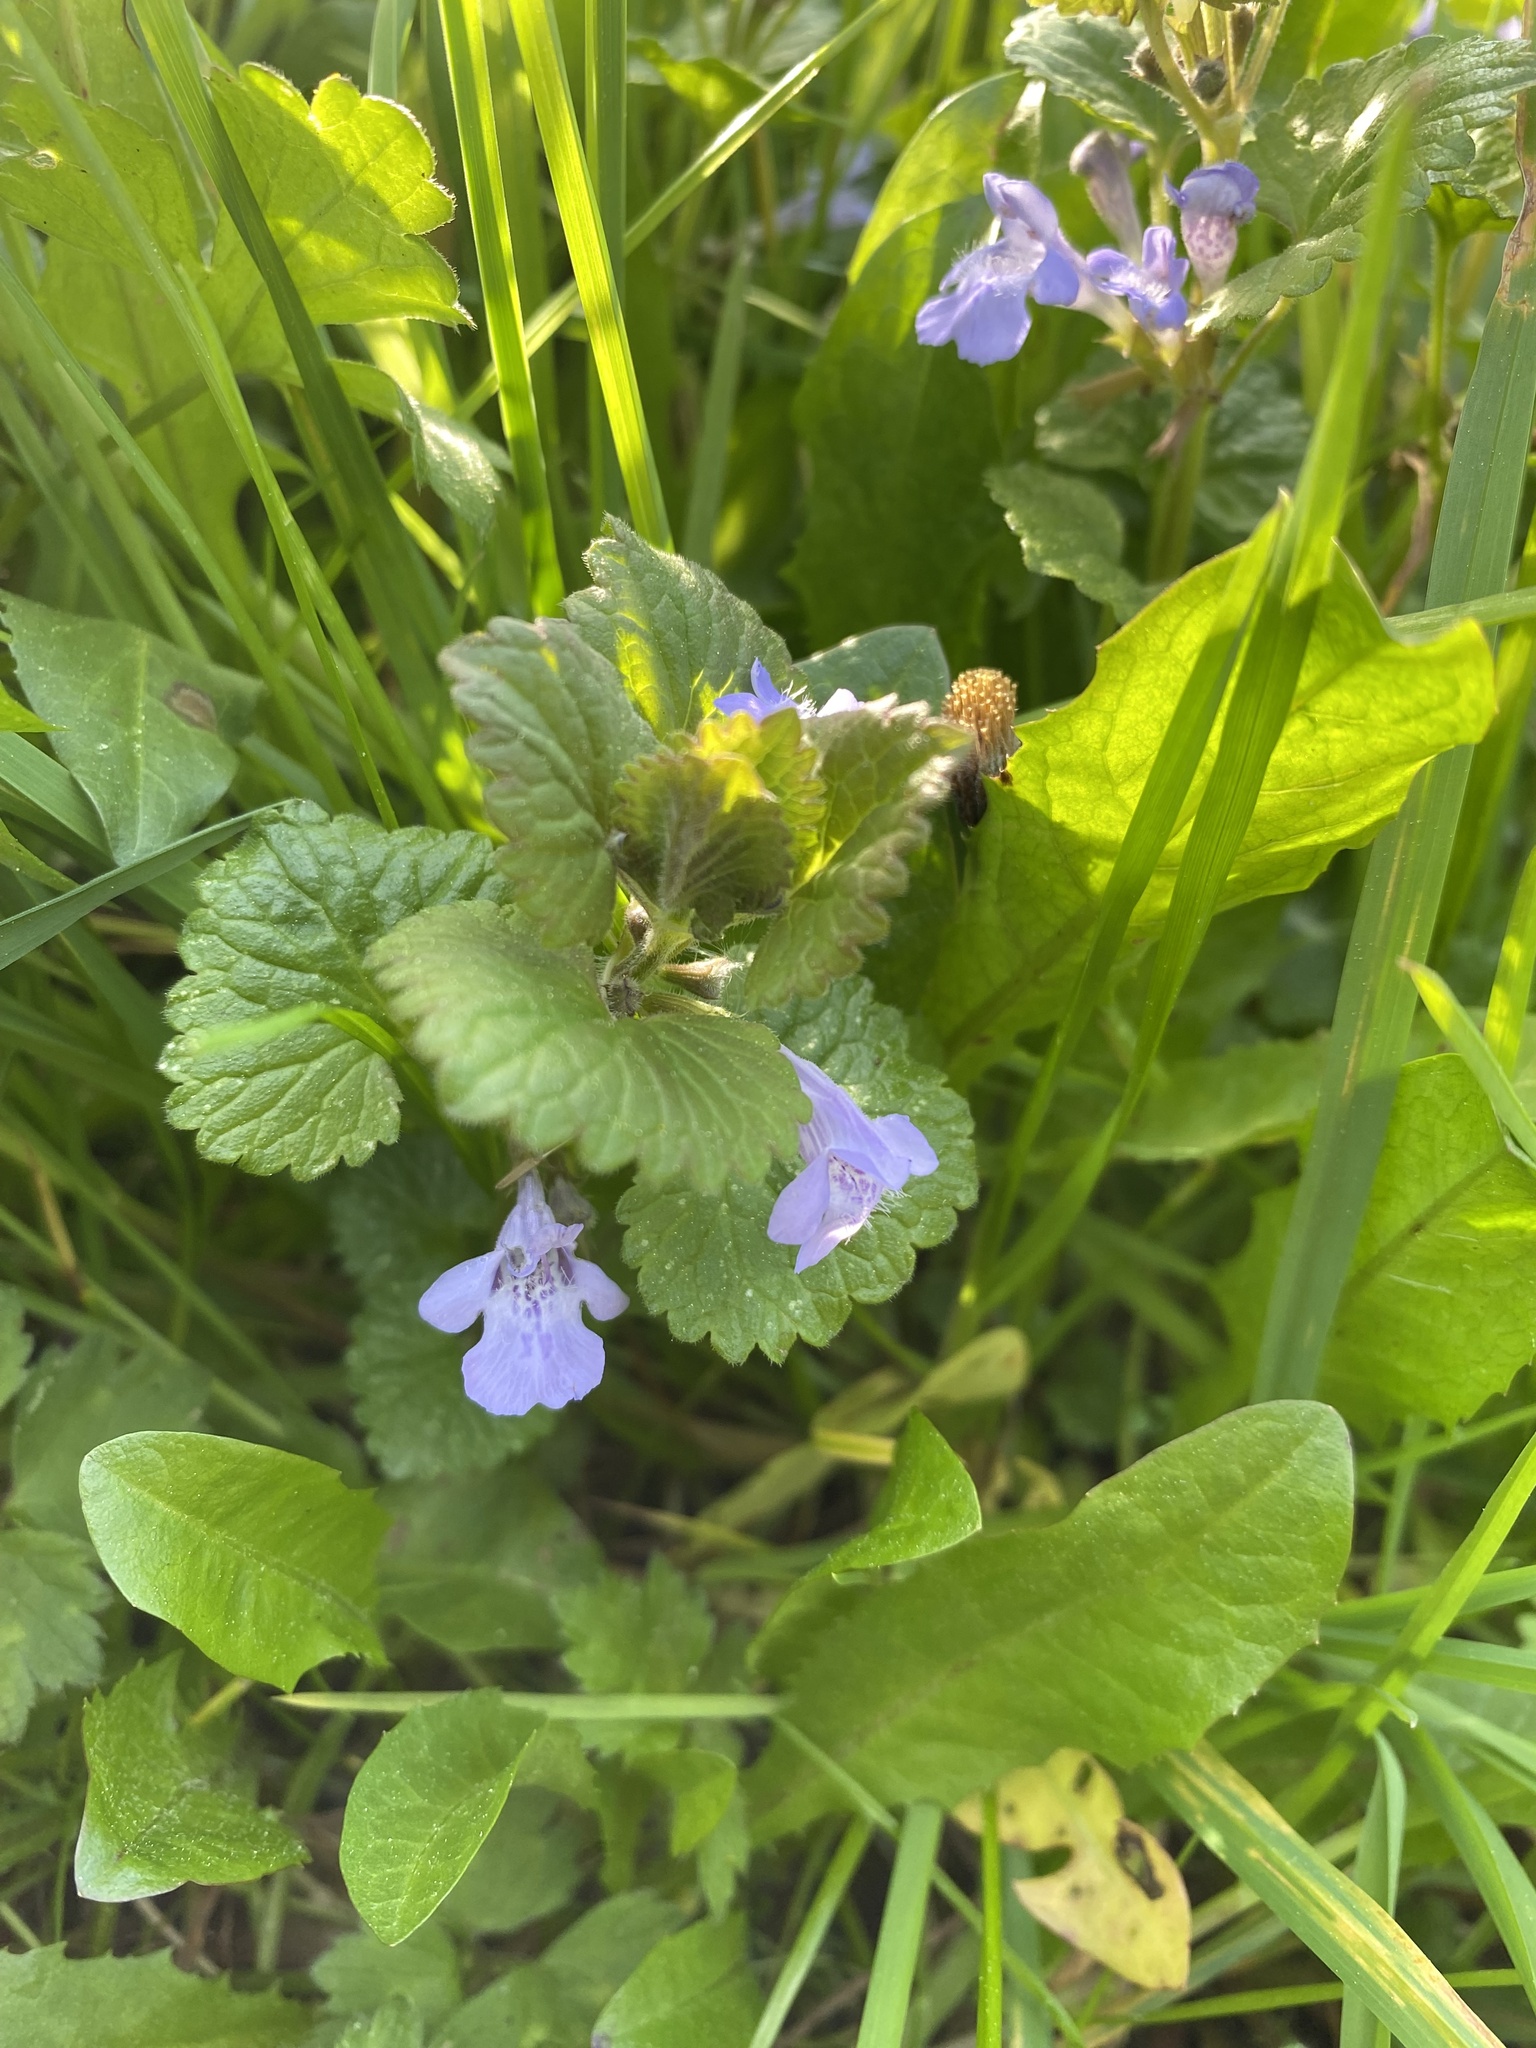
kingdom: Plantae
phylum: Tracheophyta
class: Magnoliopsida
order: Lamiales
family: Lamiaceae
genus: Glechoma
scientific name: Glechoma hederacea
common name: Ground ivy
